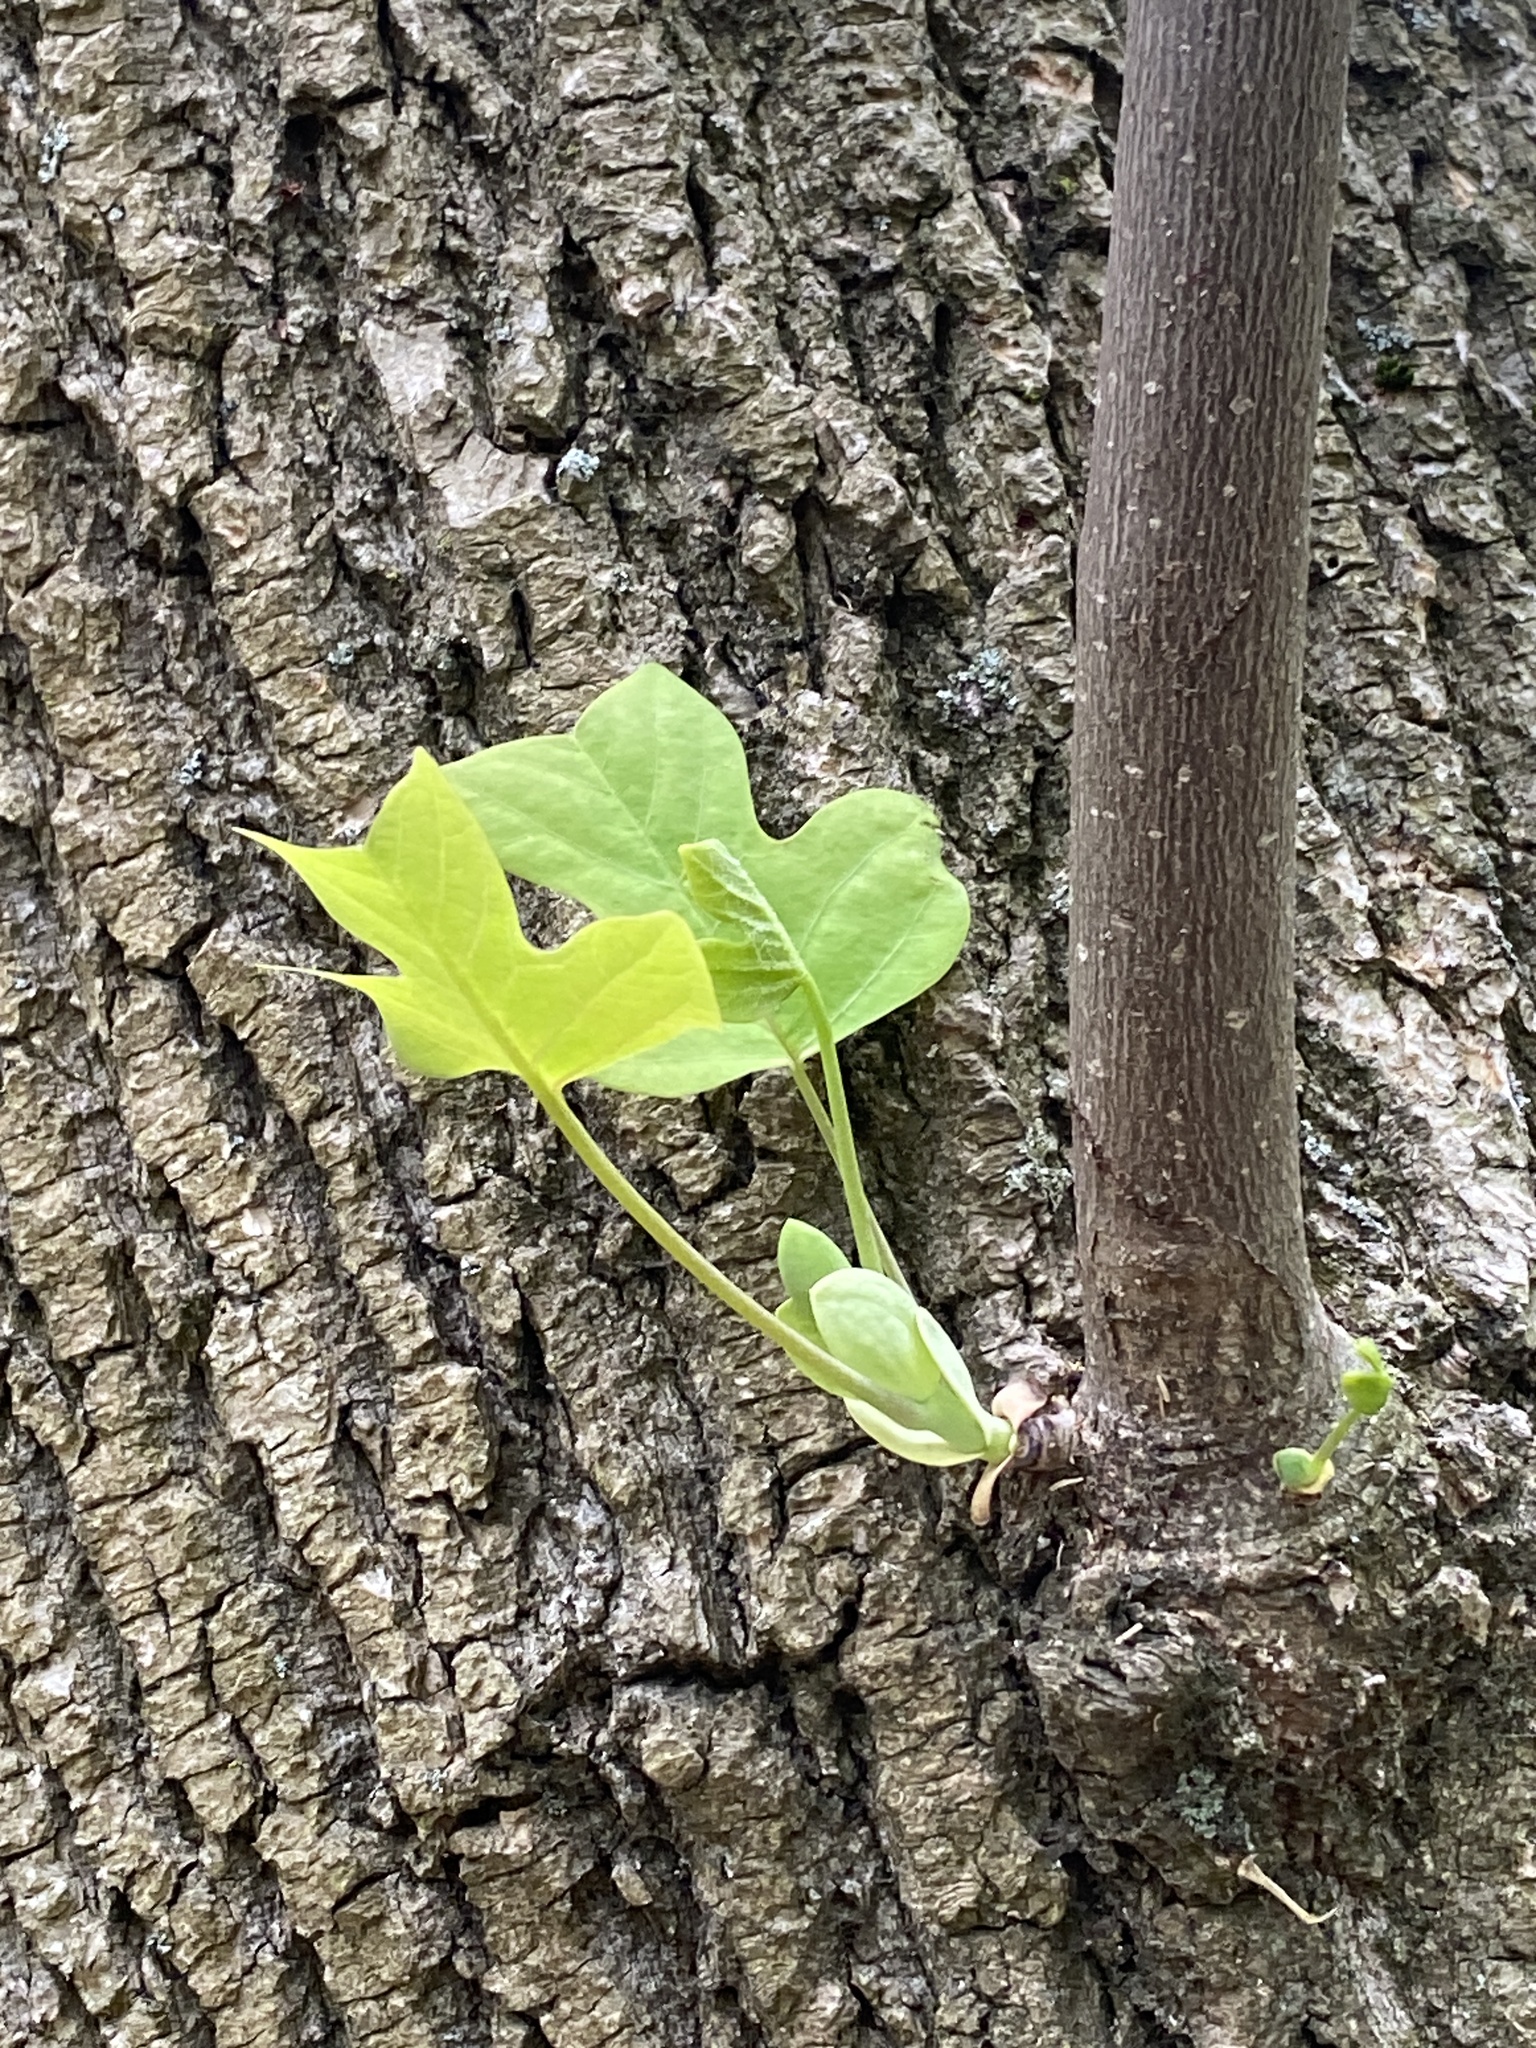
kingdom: Plantae
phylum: Tracheophyta
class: Magnoliopsida
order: Magnoliales
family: Magnoliaceae
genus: Liriodendron
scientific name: Liriodendron tulipifera
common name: Tulip tree
